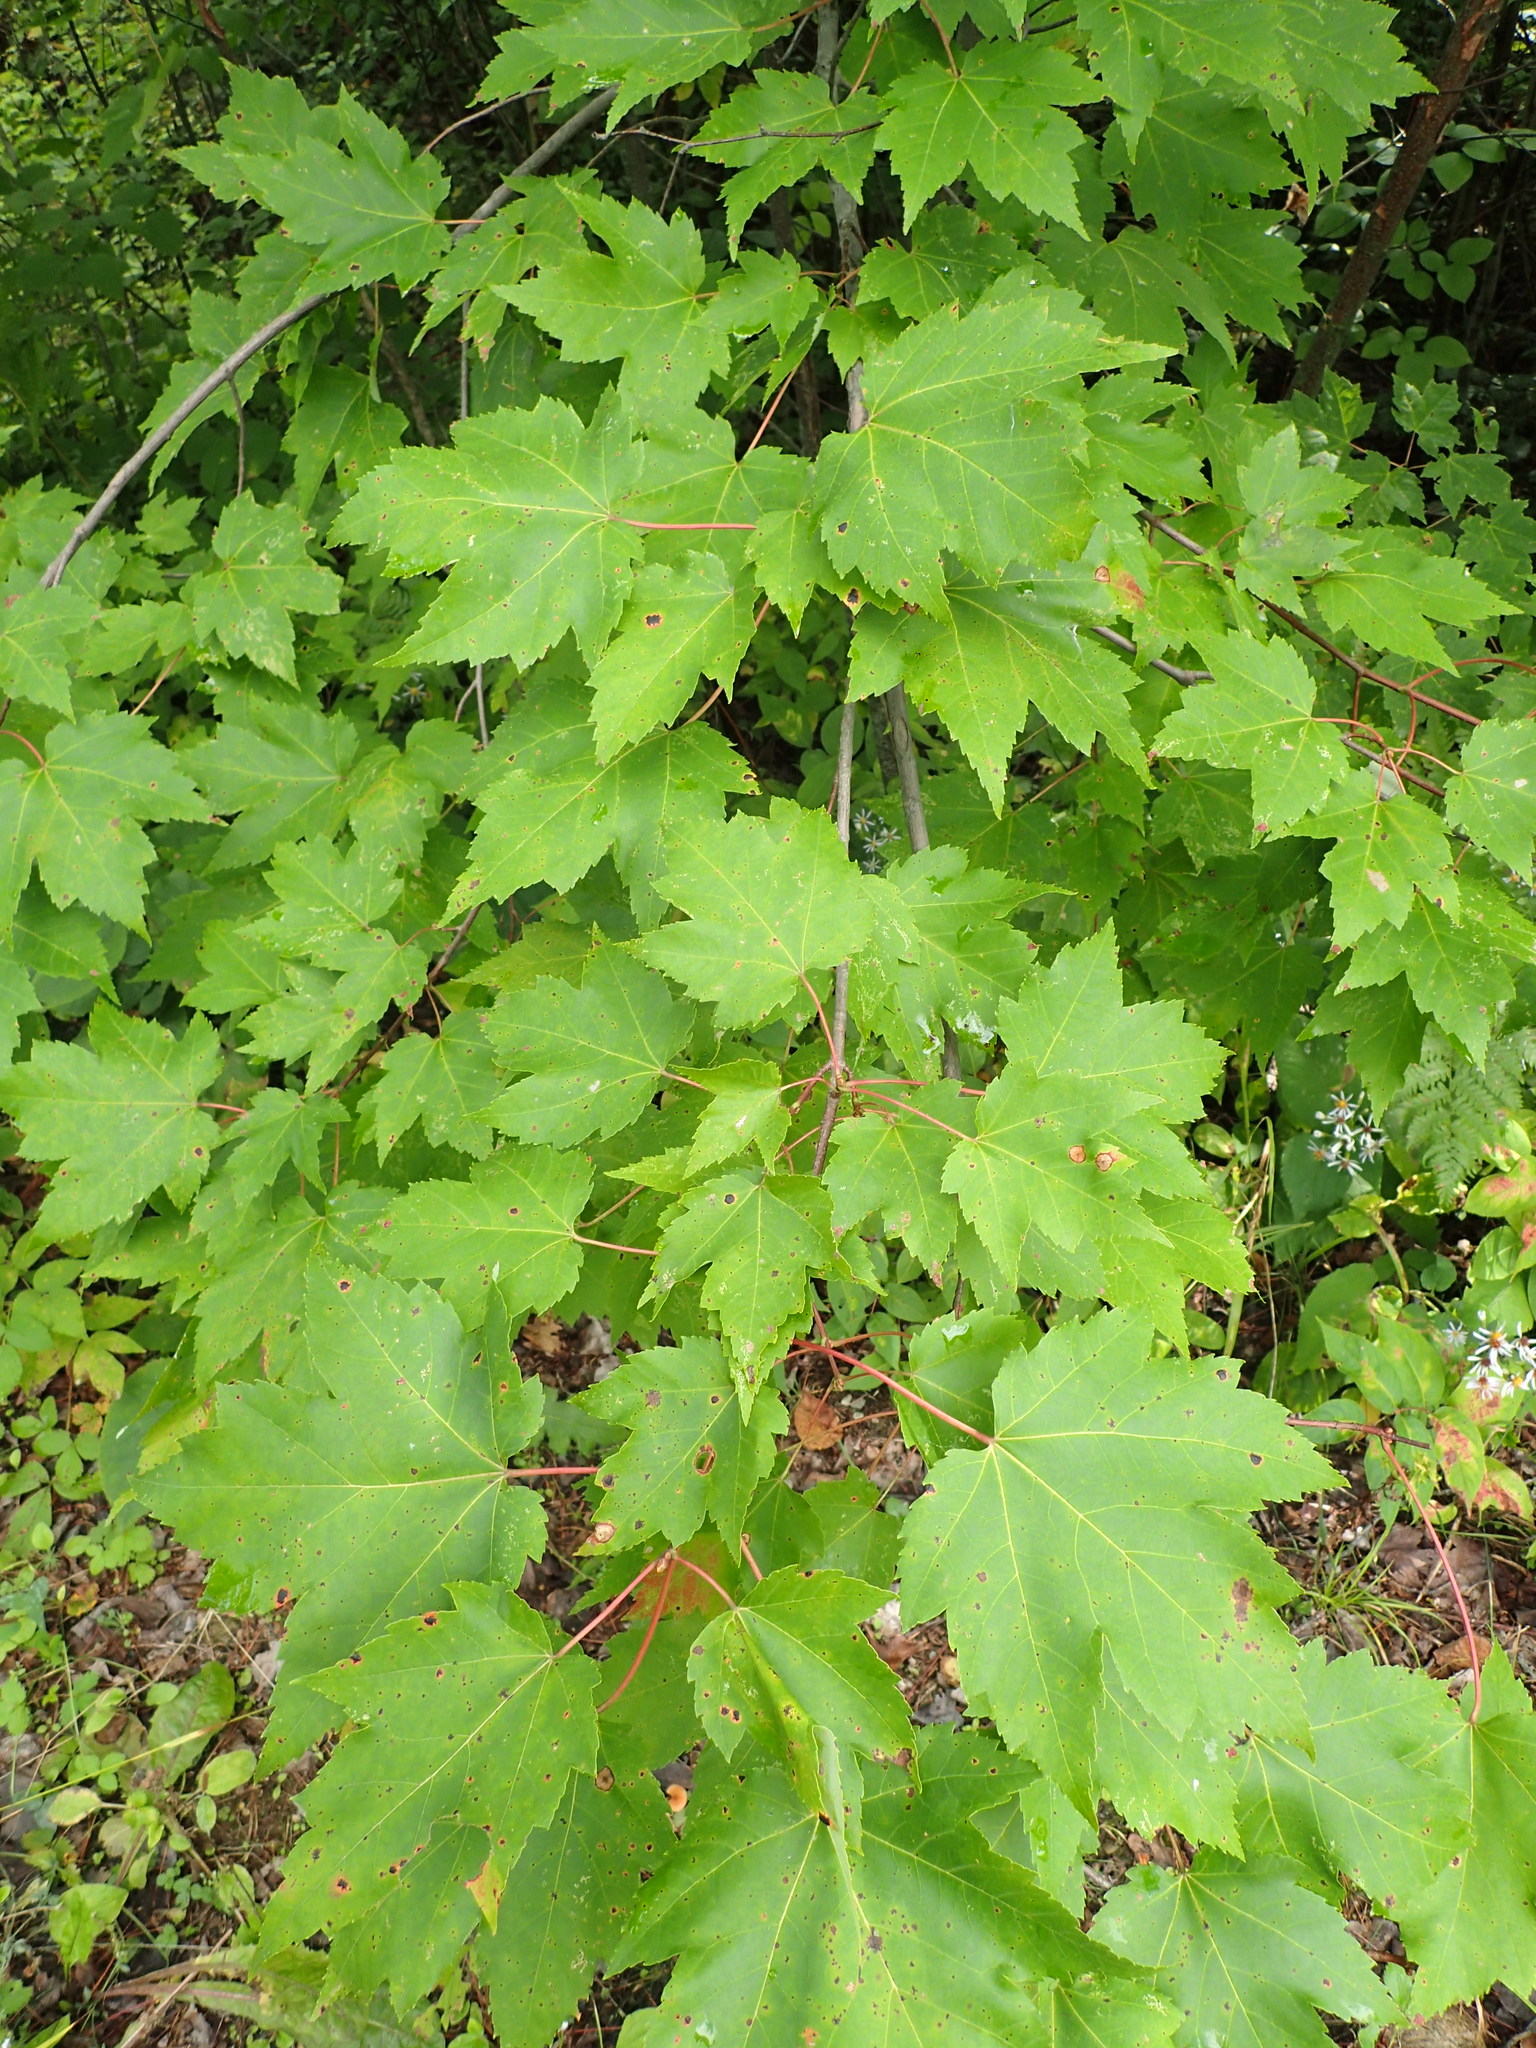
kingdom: Plantae
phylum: Tracheophyta
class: Magnoliopsida
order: Sapindales
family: Sapindaceae
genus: Acer
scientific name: Acer rubrum
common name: Red maple
